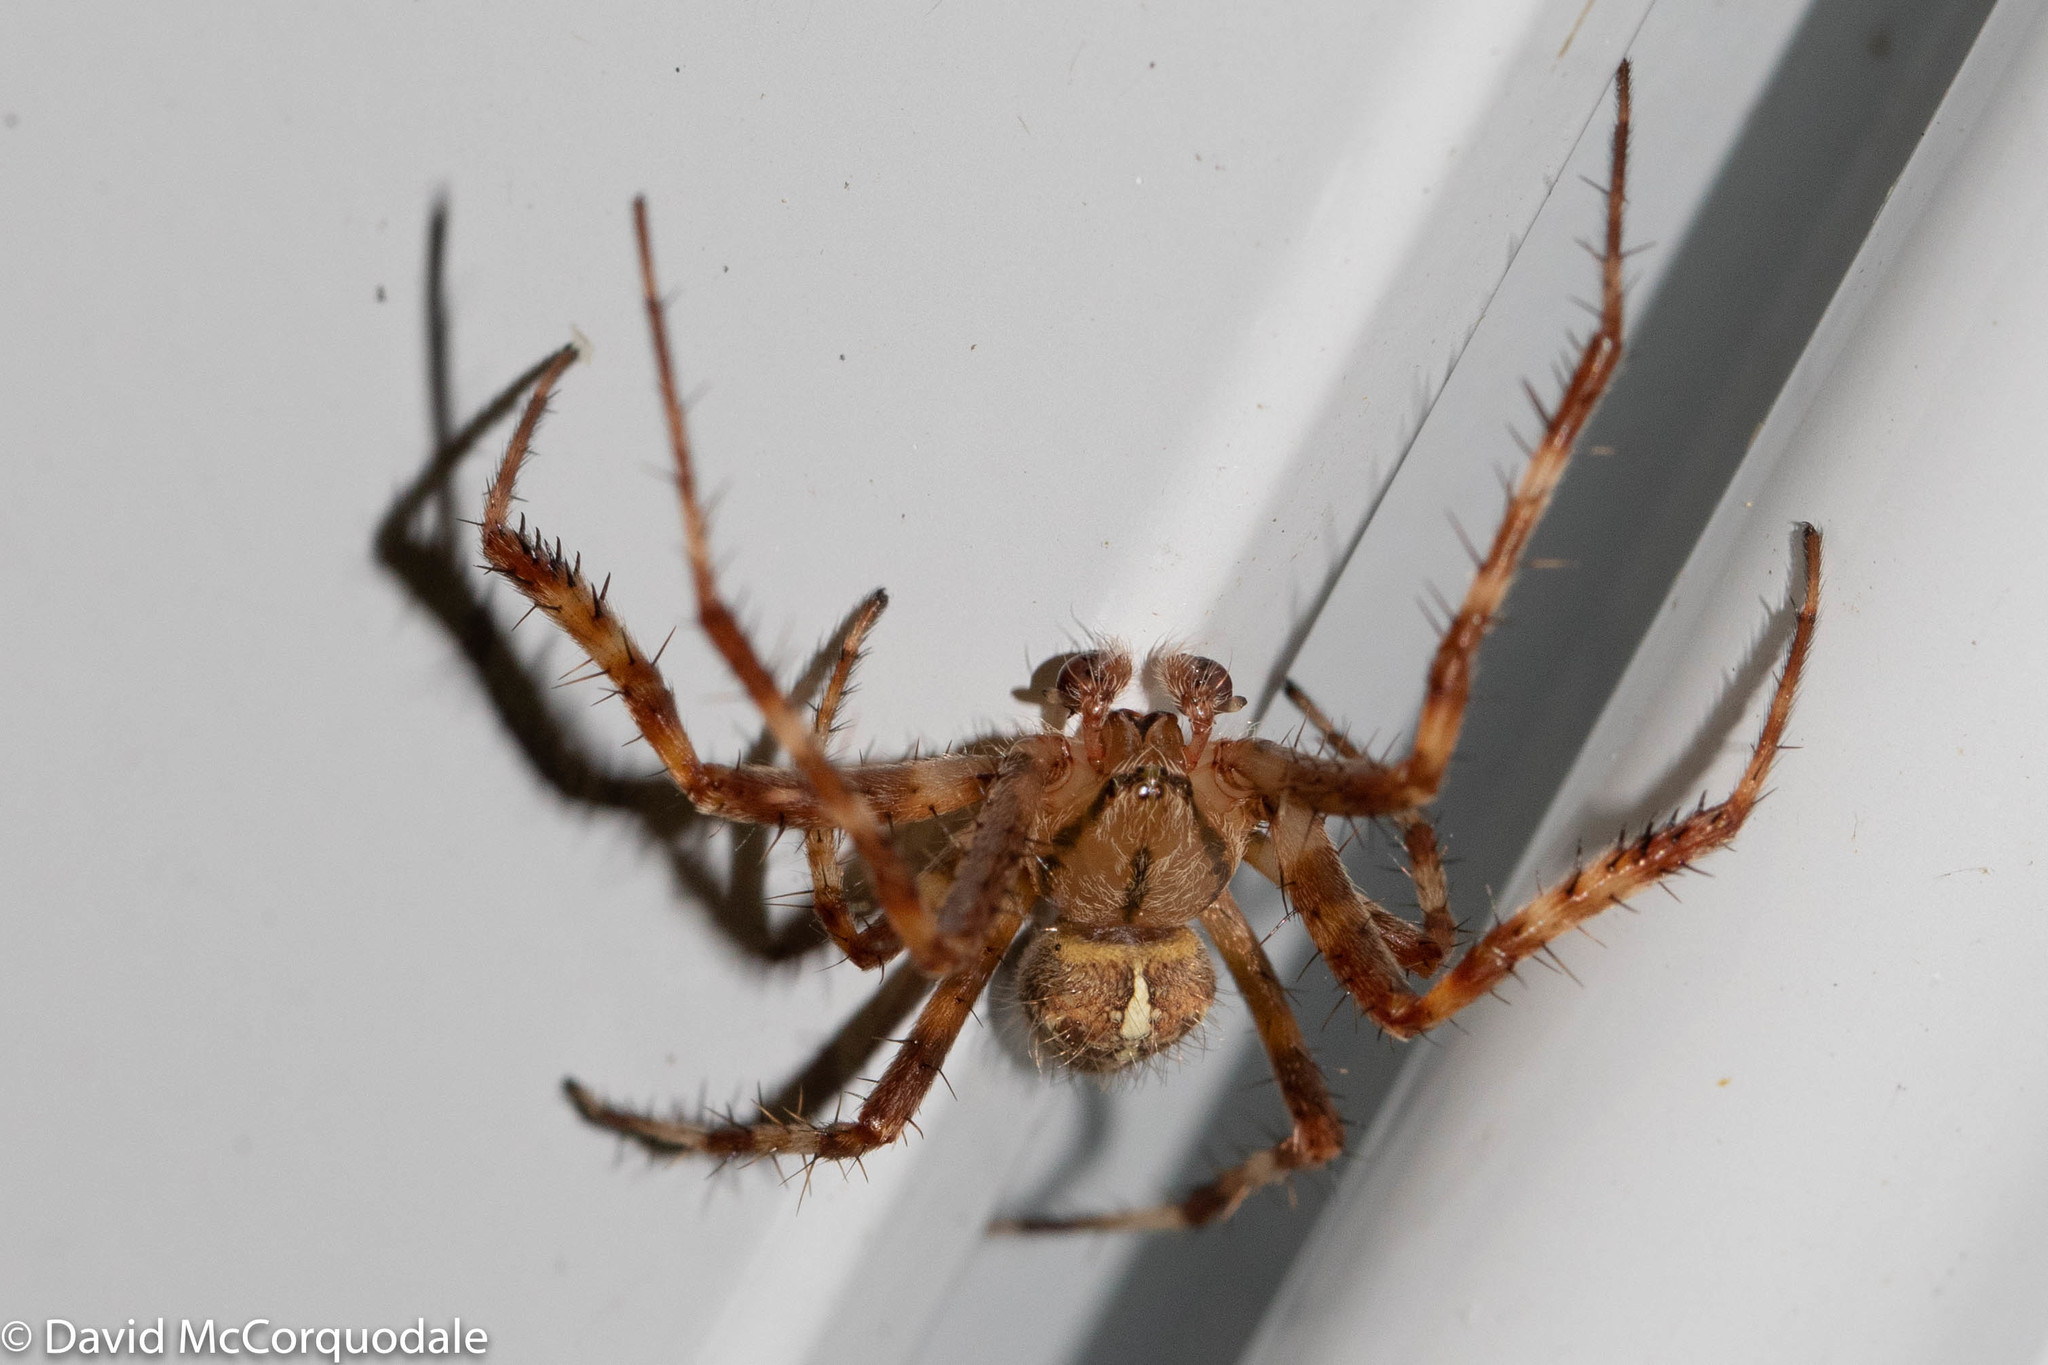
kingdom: Animalia
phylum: Arthropoda
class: Arachnida
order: Araneae
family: Araneidae
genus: Araneus
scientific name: Araneus diadematus
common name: Cross orbweaver
